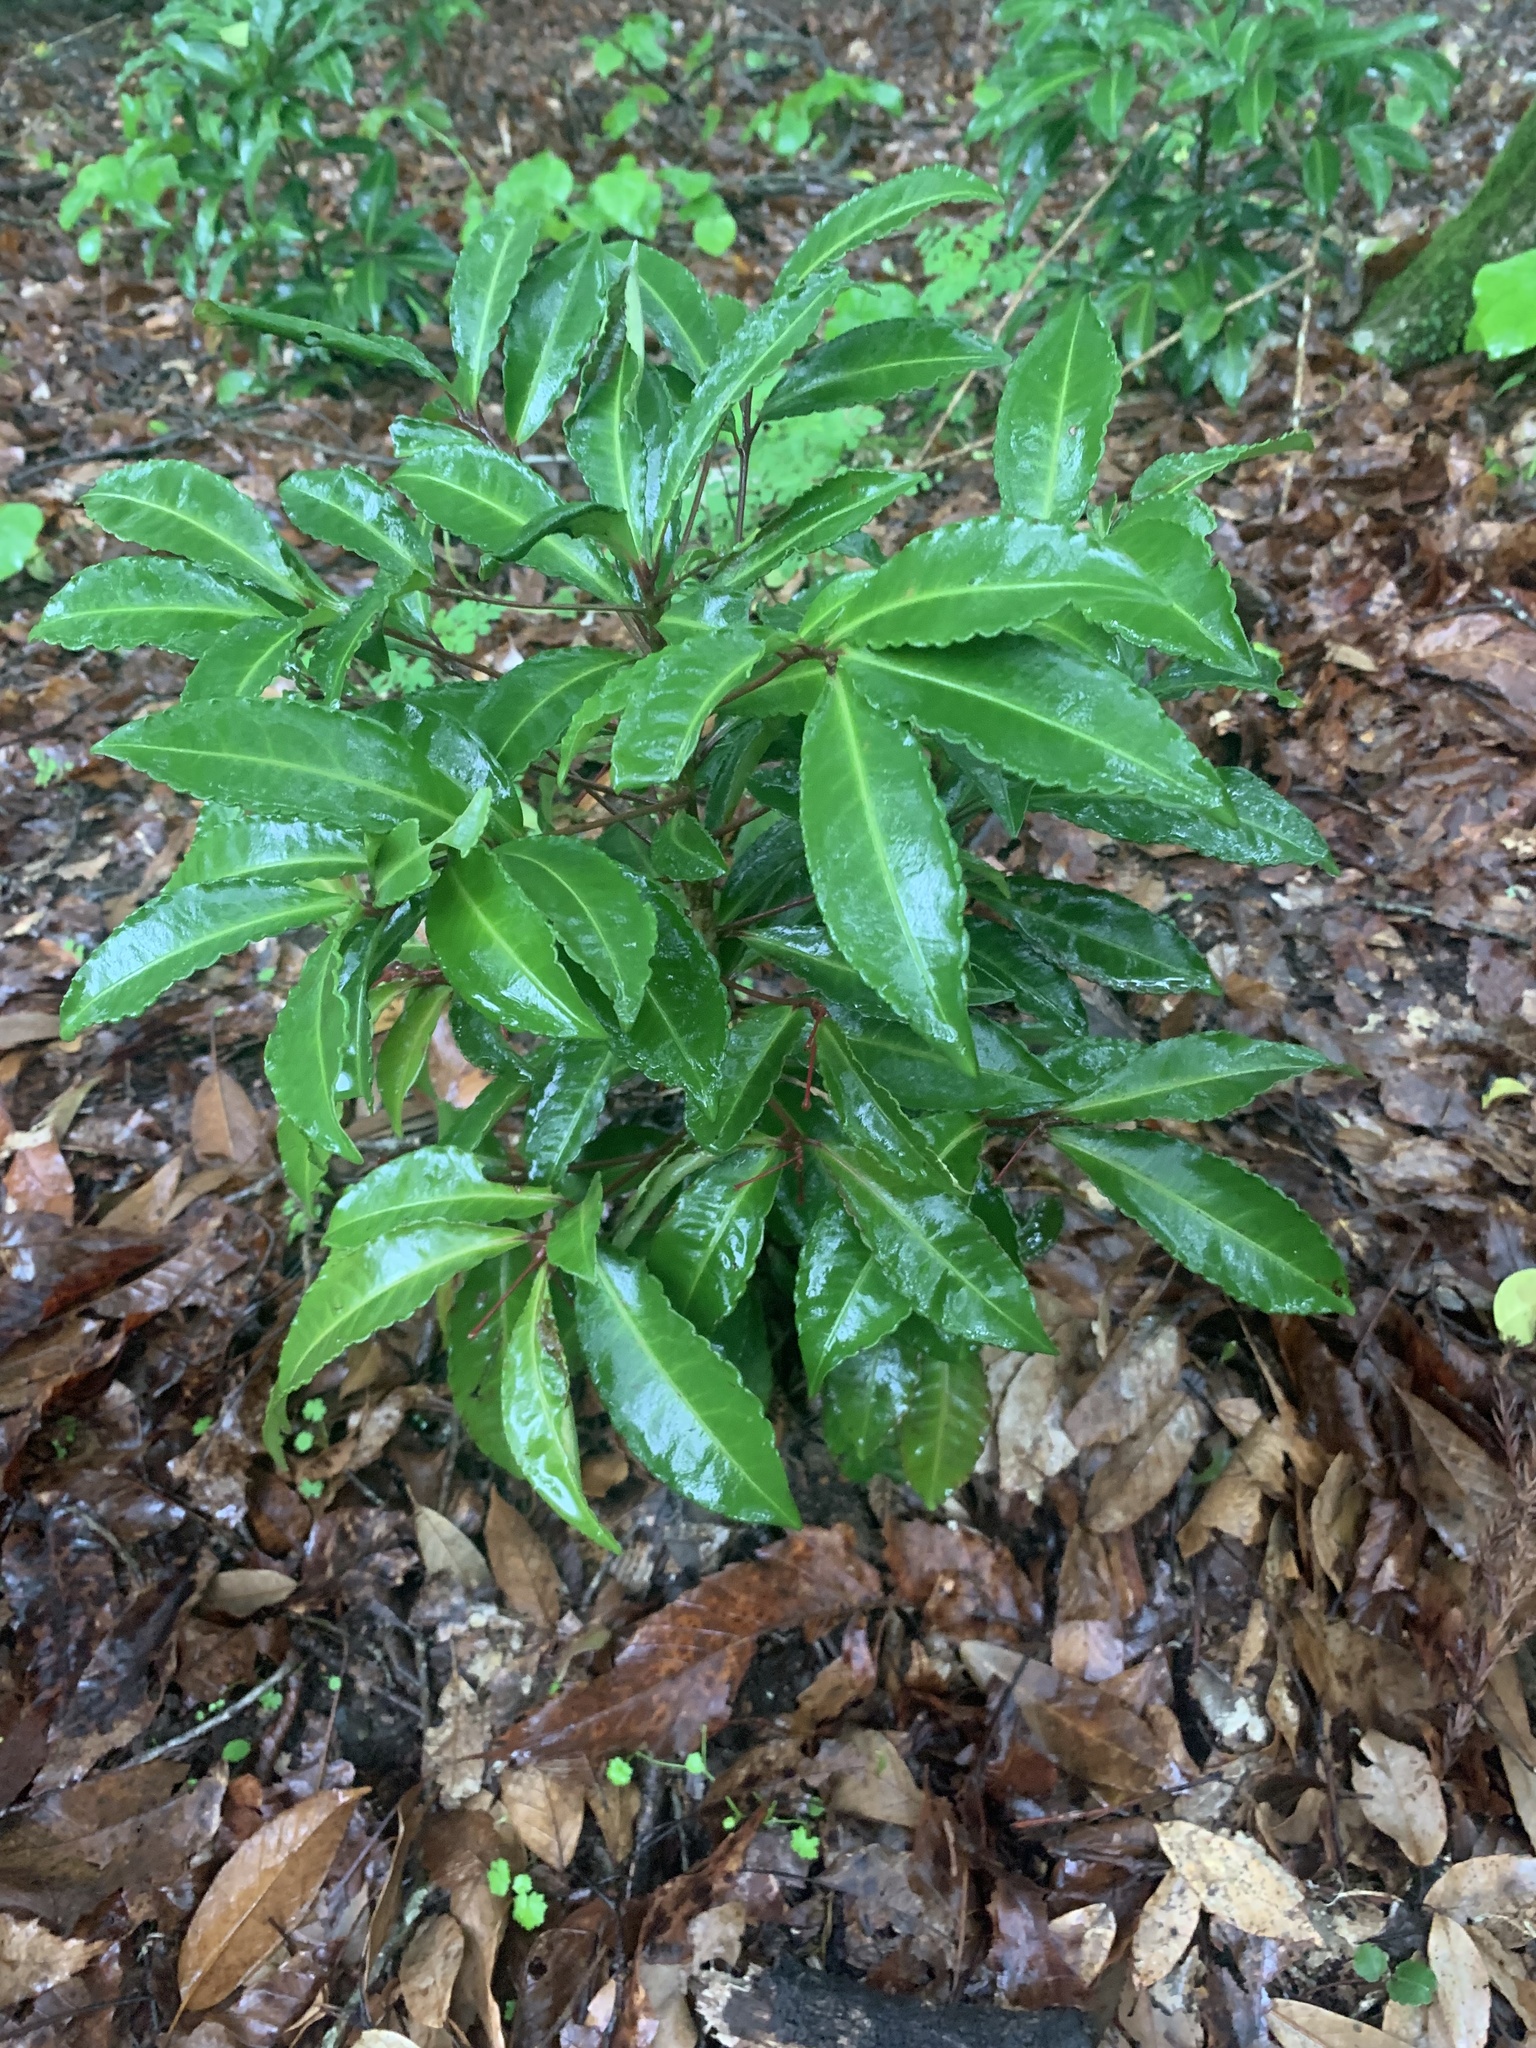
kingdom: Plantae
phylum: Tracheophyta
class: Magnoliopsida
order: Ericales
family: Primulaceae
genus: Ardisia
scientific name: Ardisia crenata
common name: Hen's eyes
